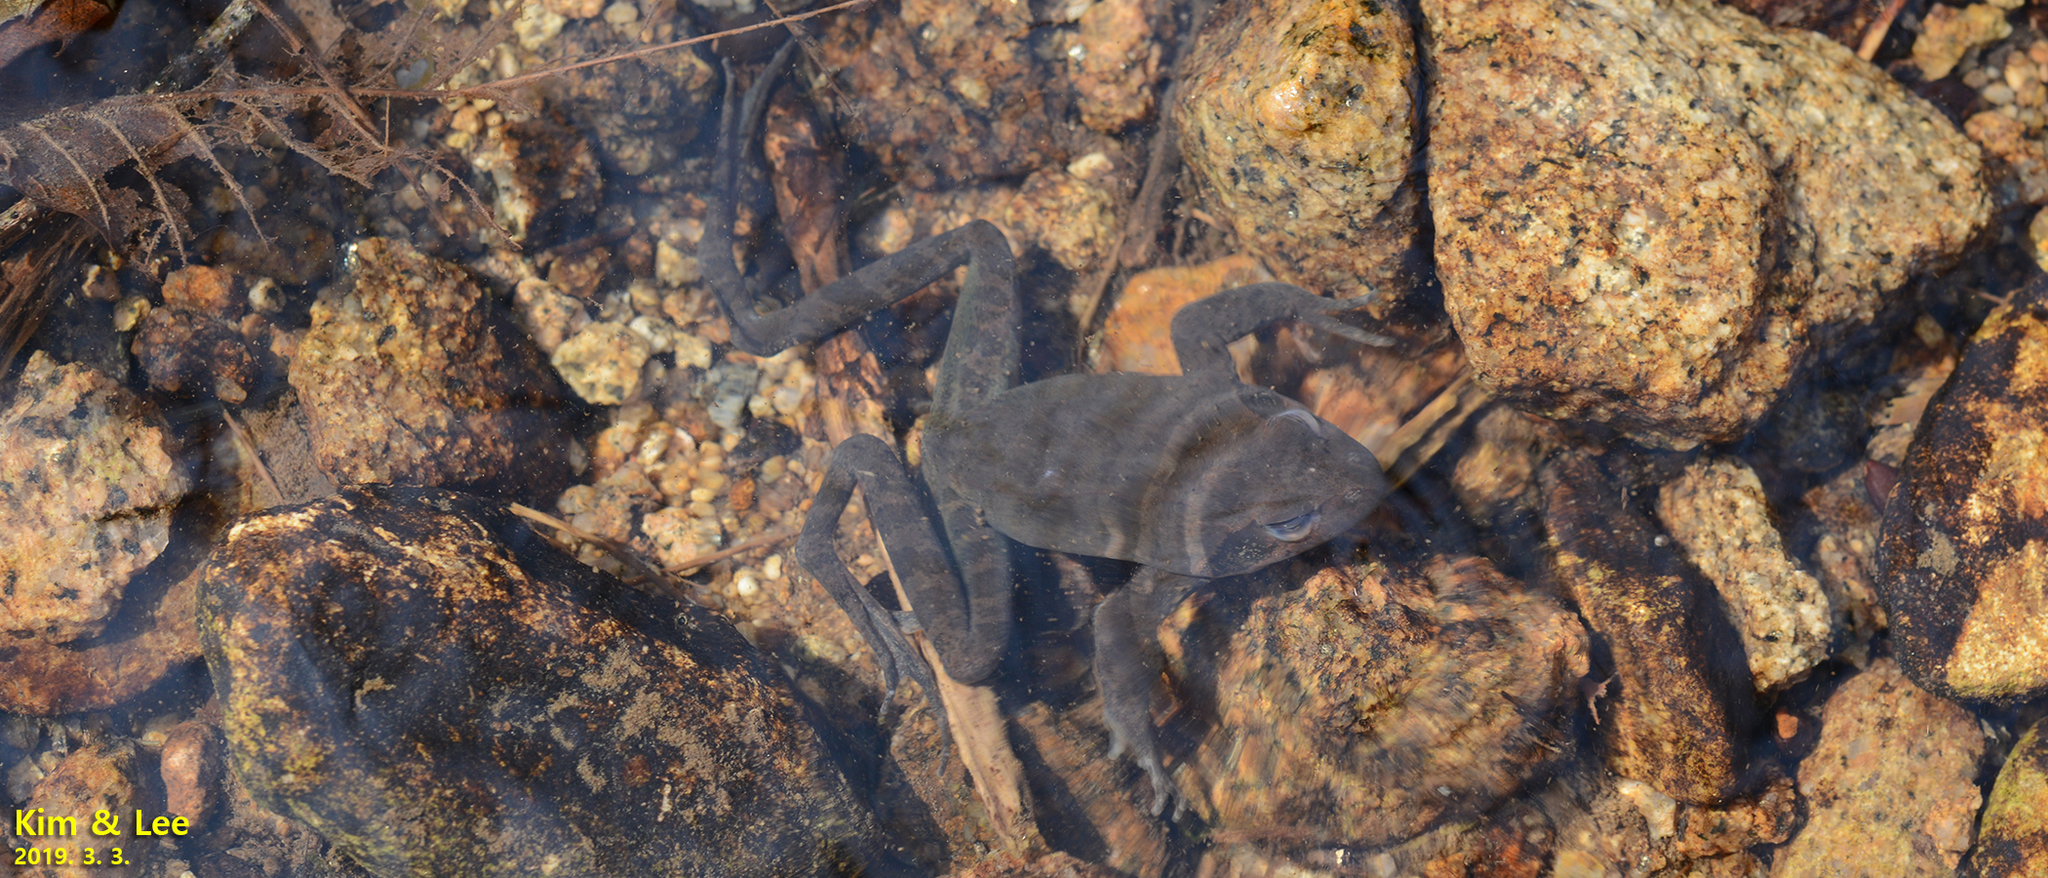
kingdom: Animalia
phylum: Chordata
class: Amphibia
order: Anura
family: Ranidae
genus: Rana
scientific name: Rana huanrenensis
